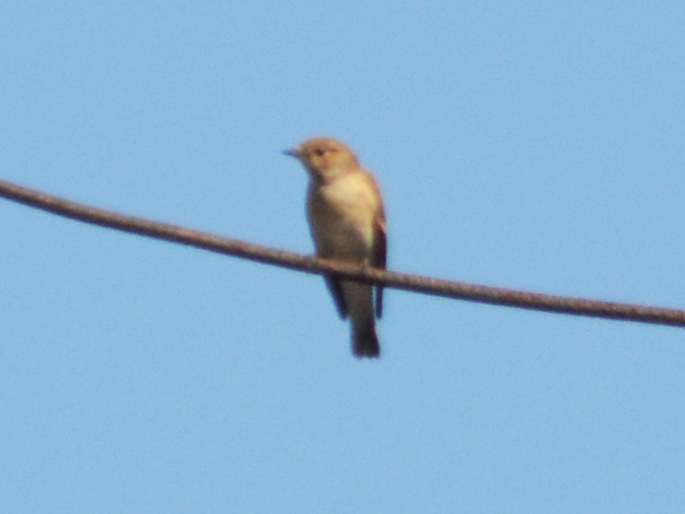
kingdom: Animalia
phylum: Chordata
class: Aves
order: Passeriformes
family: Muscicapidae
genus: Ficedula
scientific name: Ficedula hypoleuca
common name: European pied flycatcher
